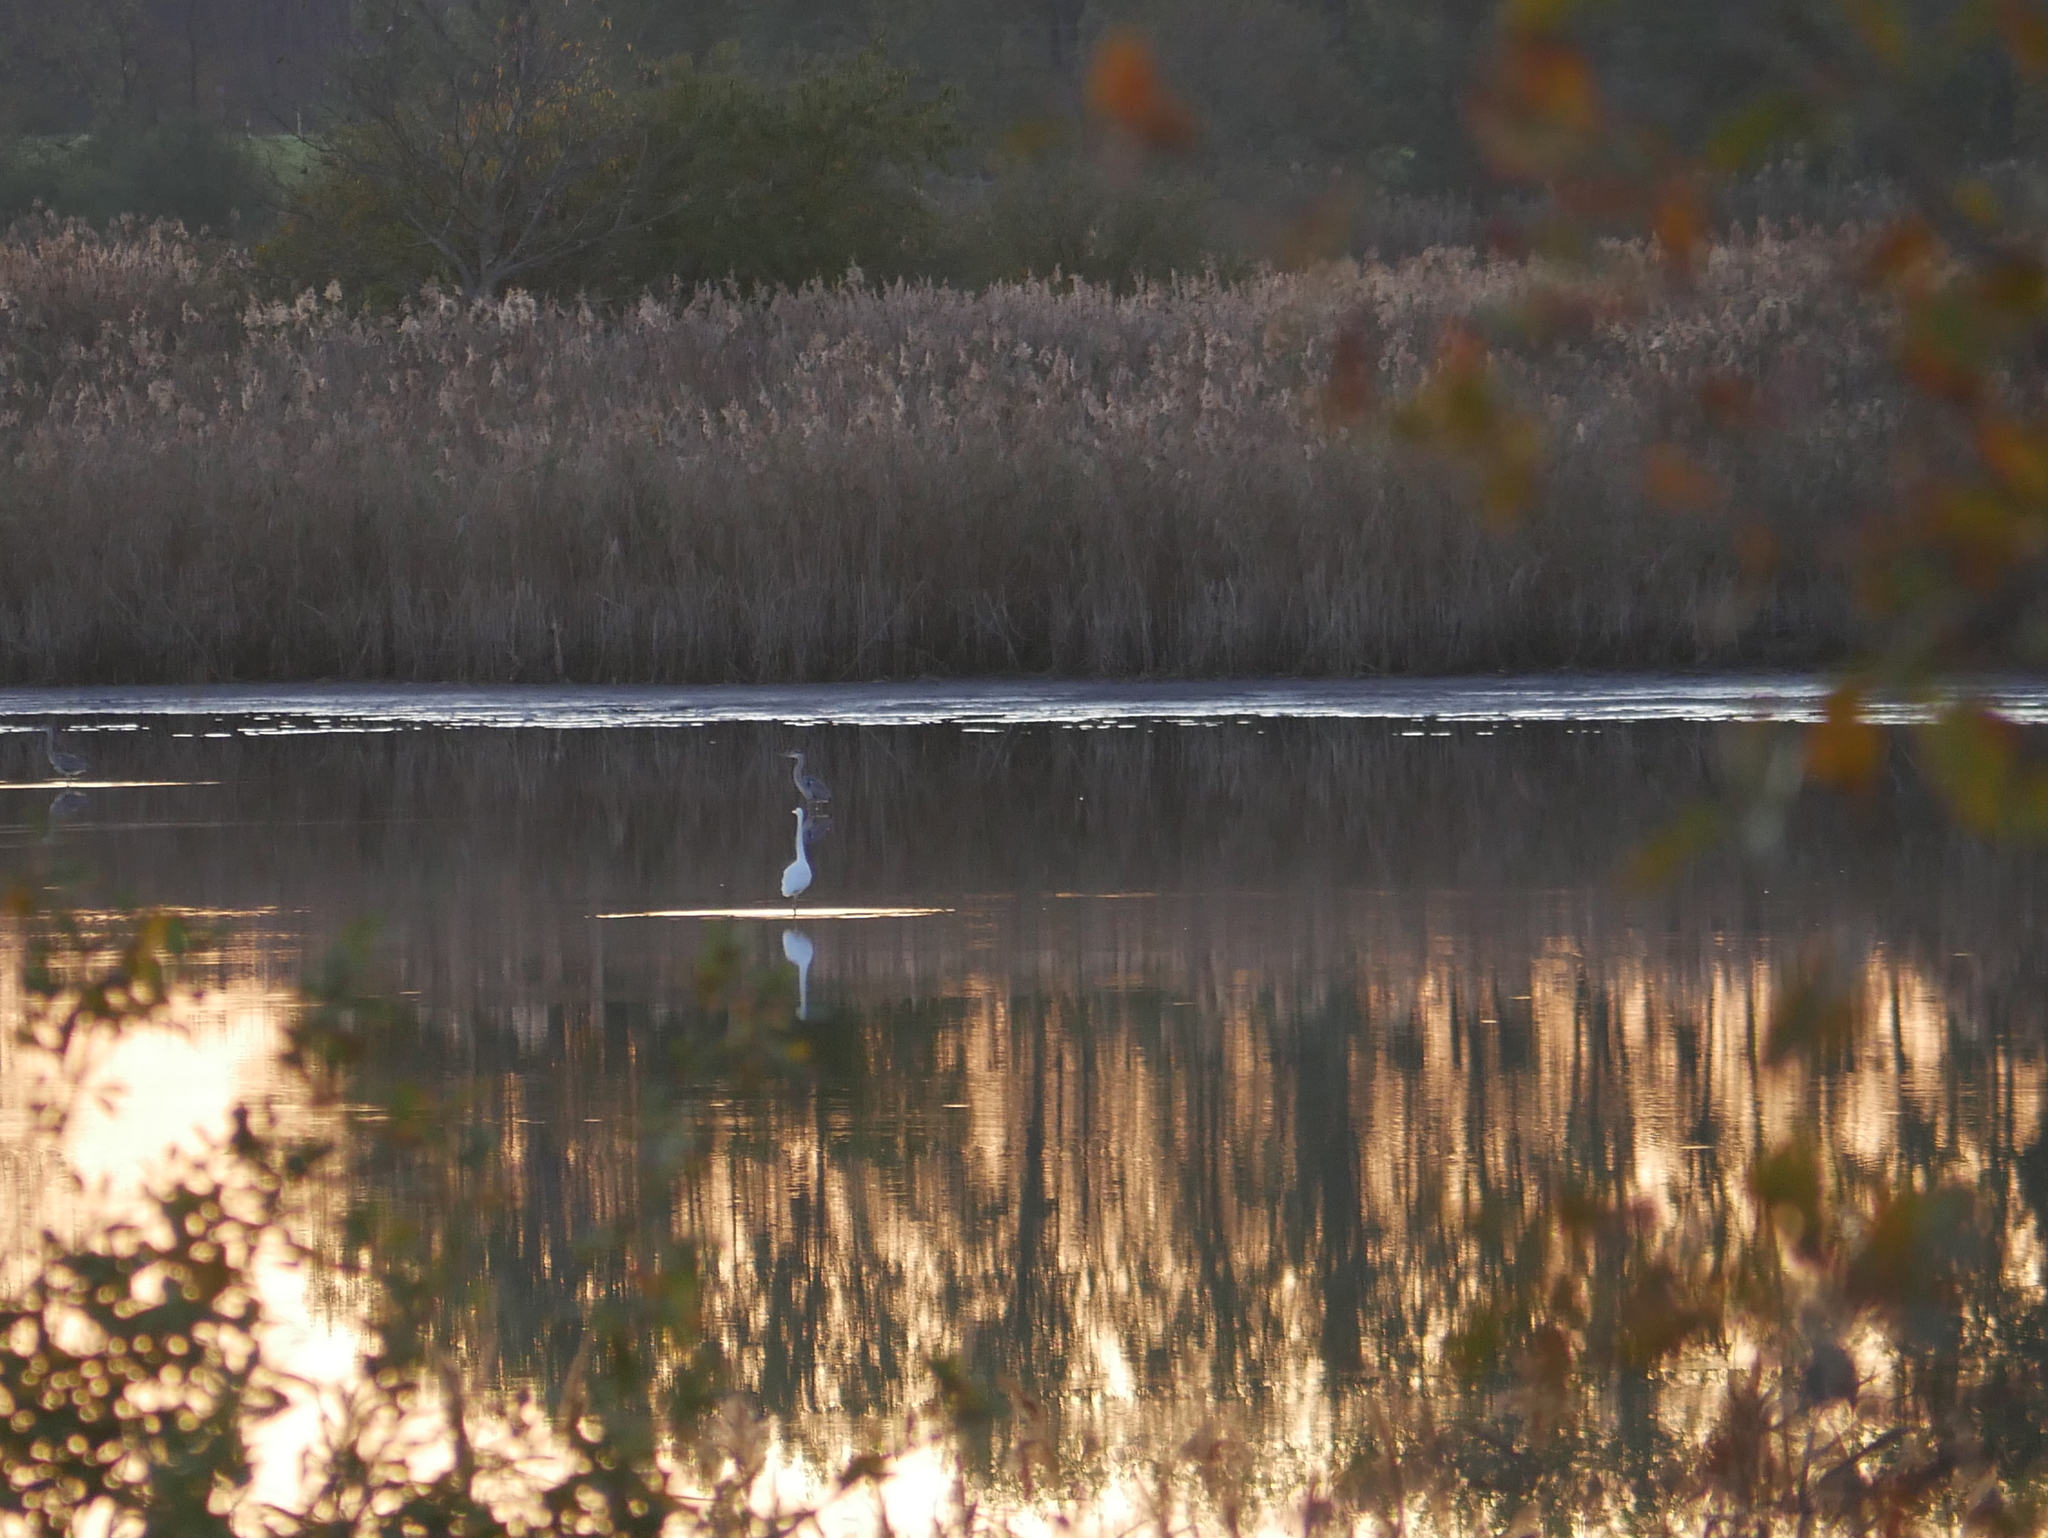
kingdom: Animalia
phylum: Chordata
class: Aves
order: Pelecaniformes
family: Ardeidae
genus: Ardea
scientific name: Ardea cinerea
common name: Grey heron
